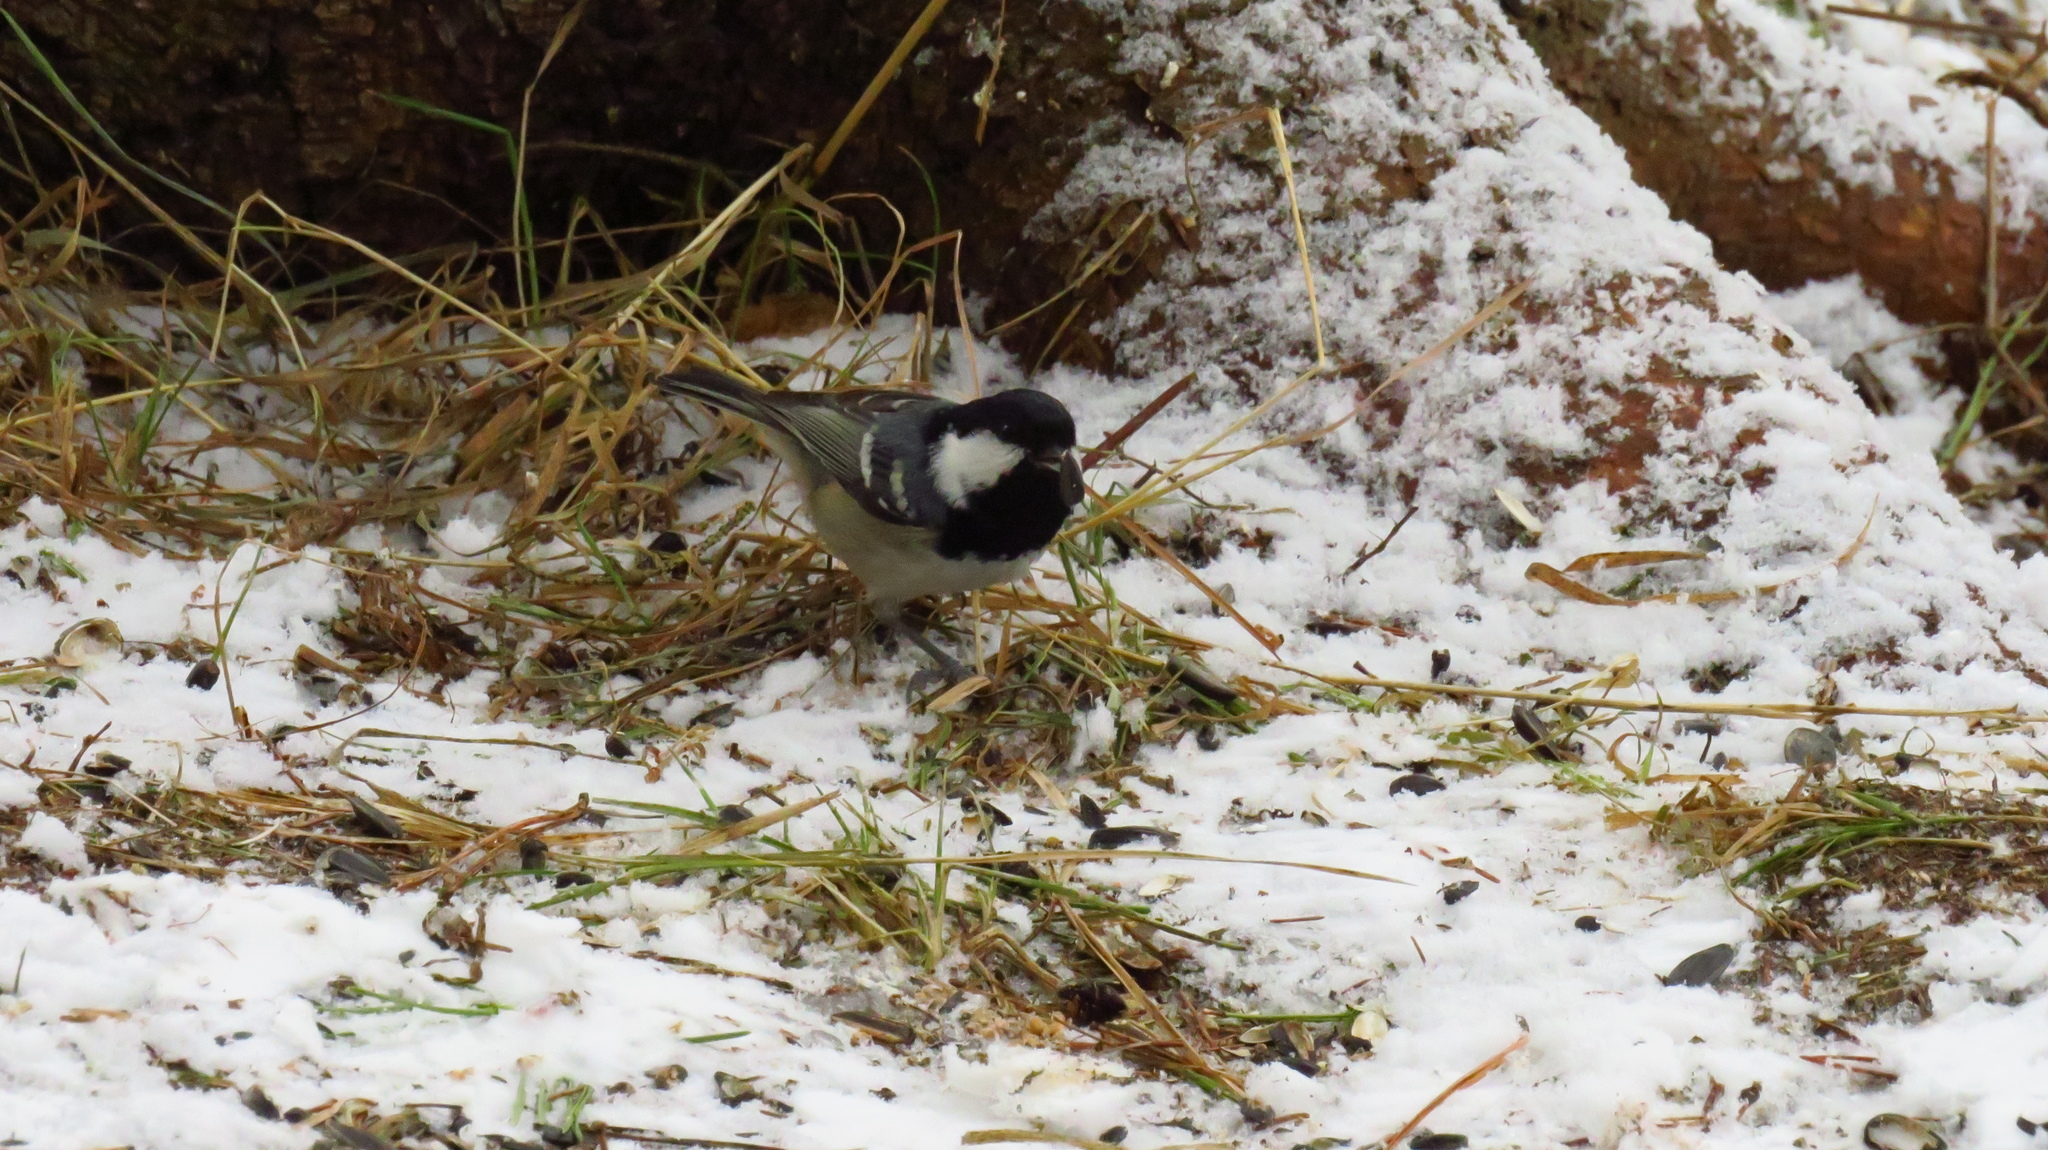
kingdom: Animalia
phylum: Chordata
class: Aves
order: Passeriformes
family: Paridae
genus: Periparus
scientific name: Periparus ater
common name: Coal tit
